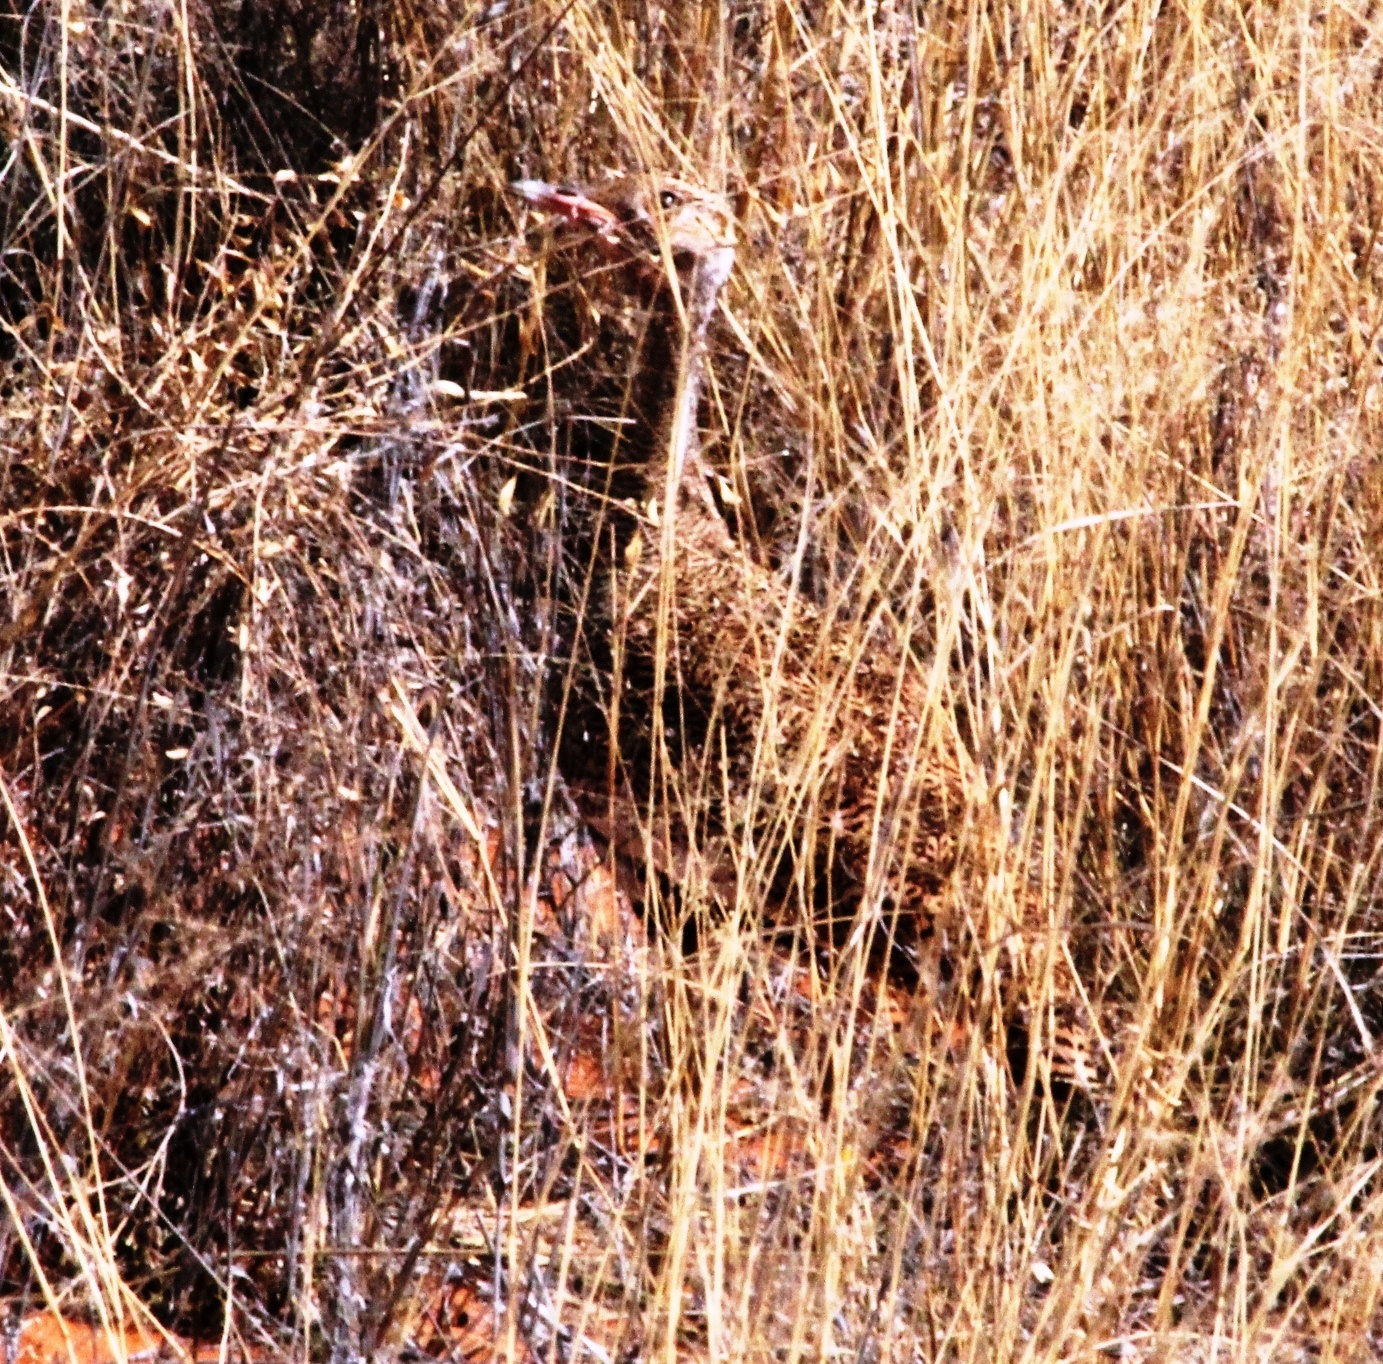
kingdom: Animalia
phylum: Chordata
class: Aves
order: Otidiformes
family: Otididae
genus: Afrotis
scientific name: Afrotis afraoides
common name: Northern black korhaan
